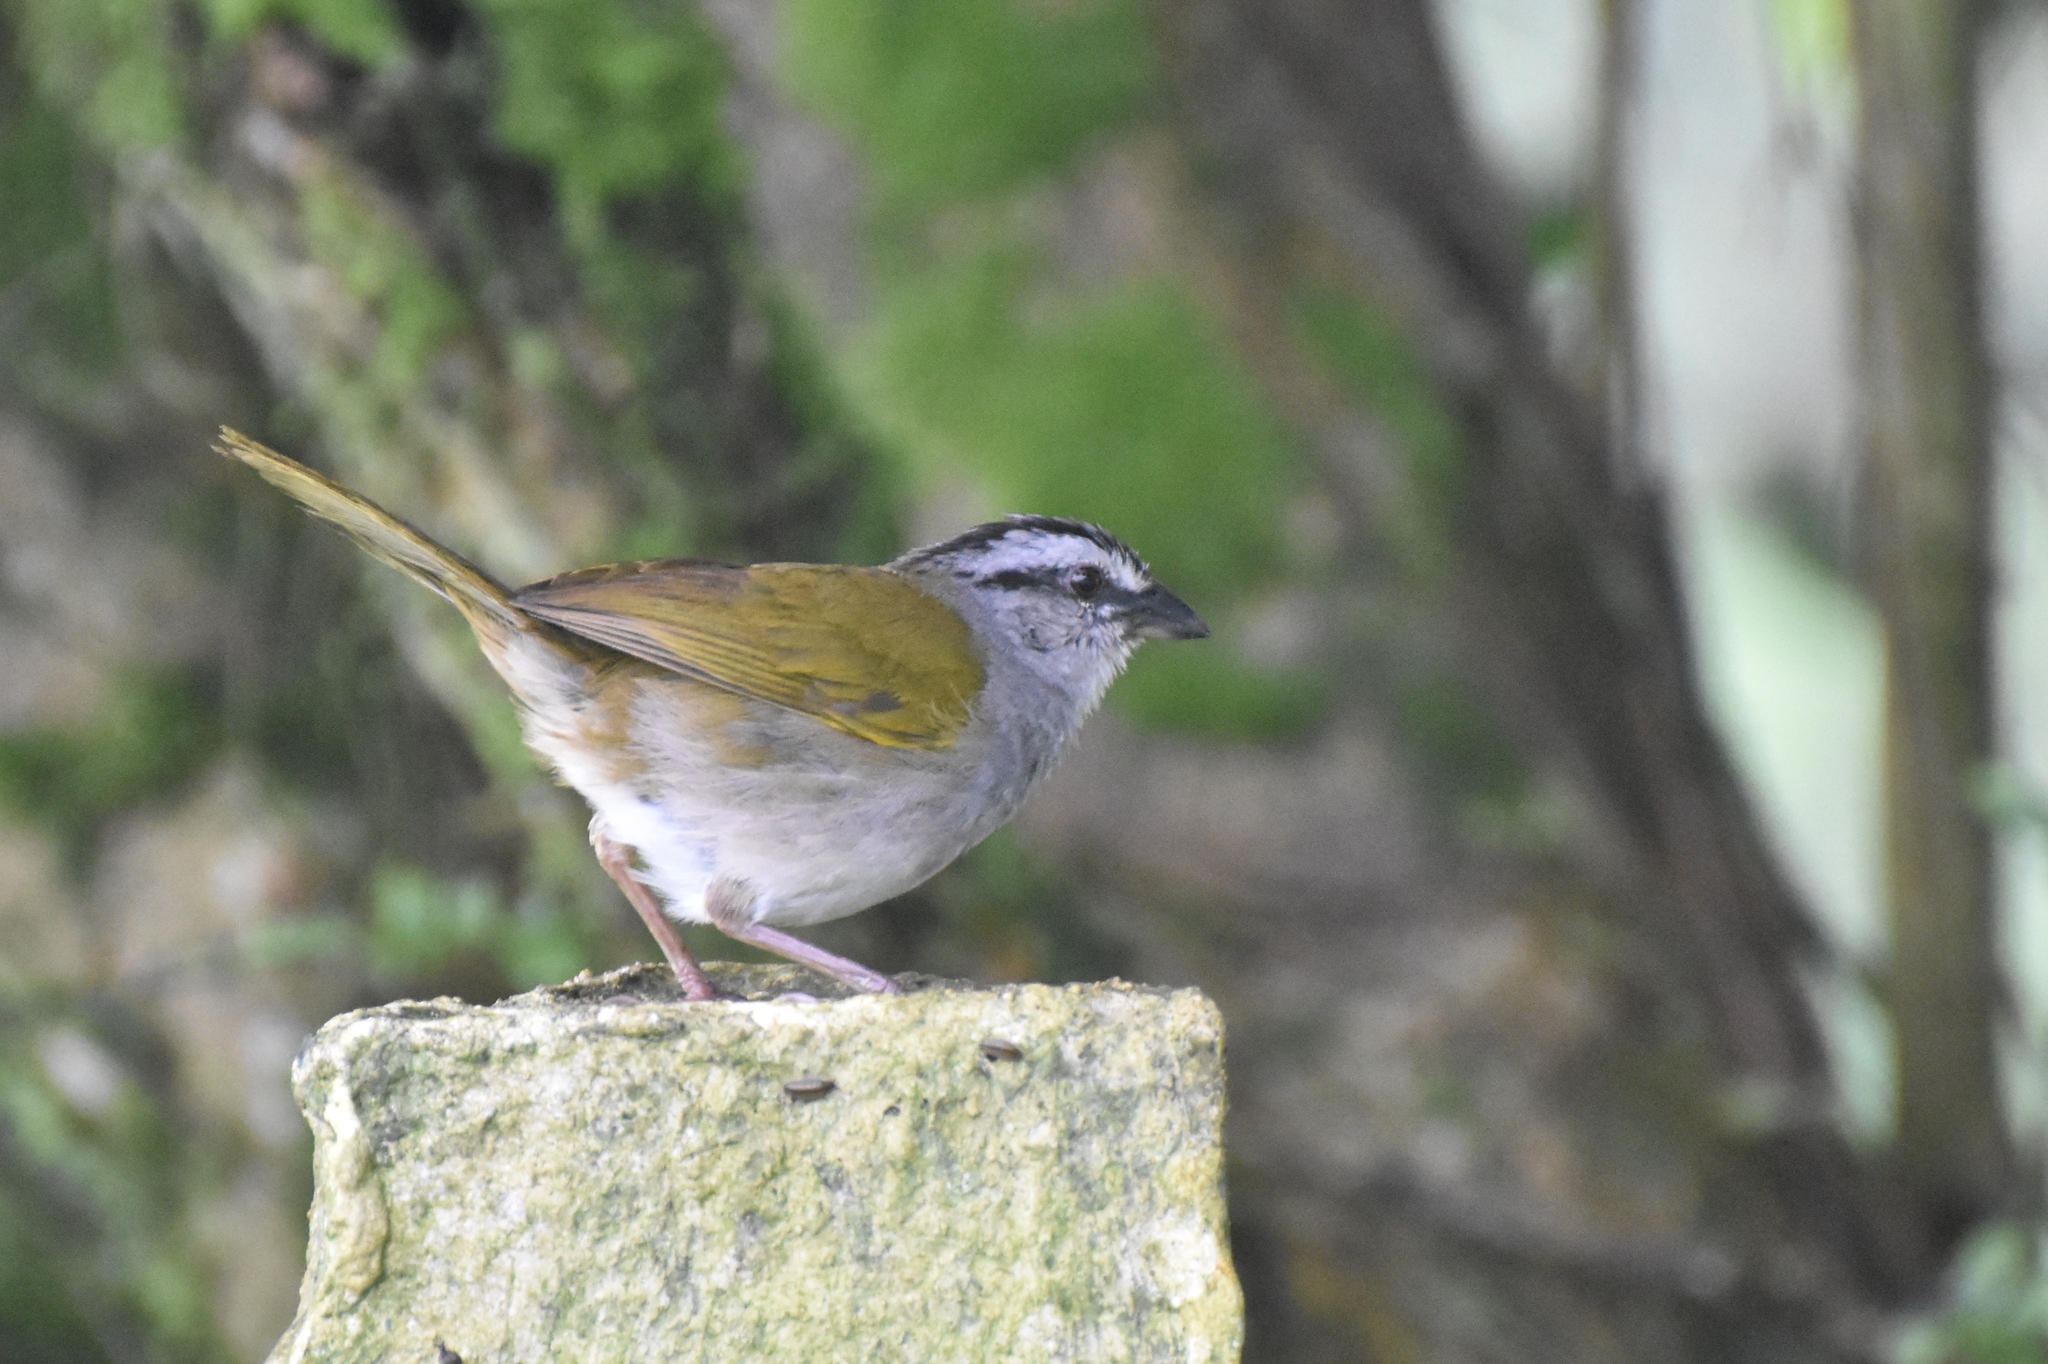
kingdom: Animalia
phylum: Chordata
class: Aves
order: Passeriformes
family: Passerellidae
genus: Arremonops
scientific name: Arremonops conirostris
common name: Black-striped sparrow
